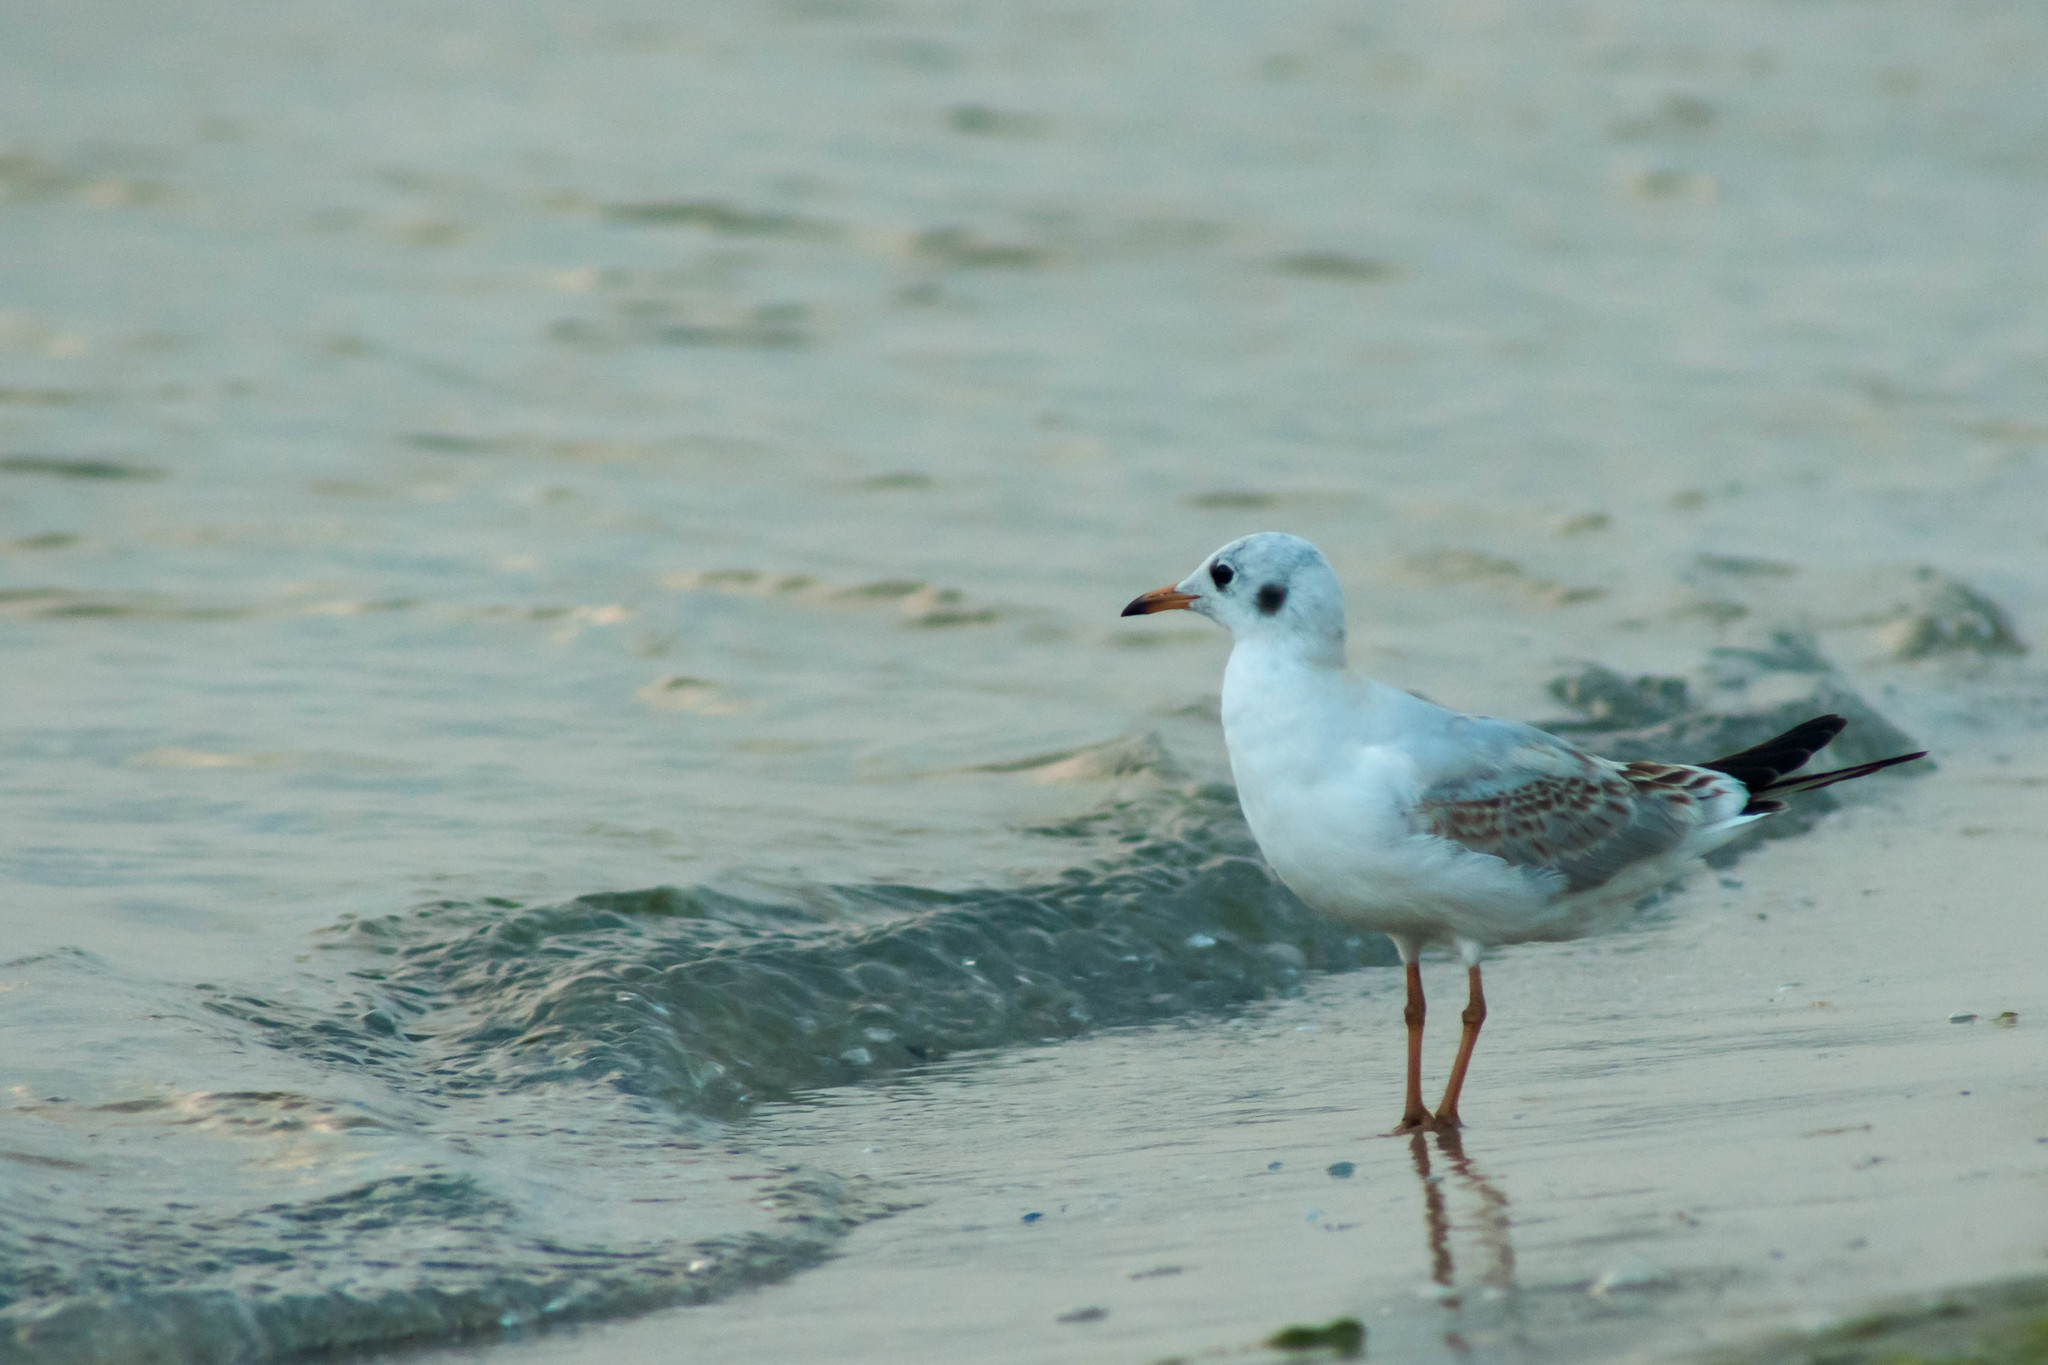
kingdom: Animalia
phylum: Chordata
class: Aves
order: Charadriiformes
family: Laridae
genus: Chroicocephalus
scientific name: Chroicocephalus ridibundus
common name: Black-headed gull
